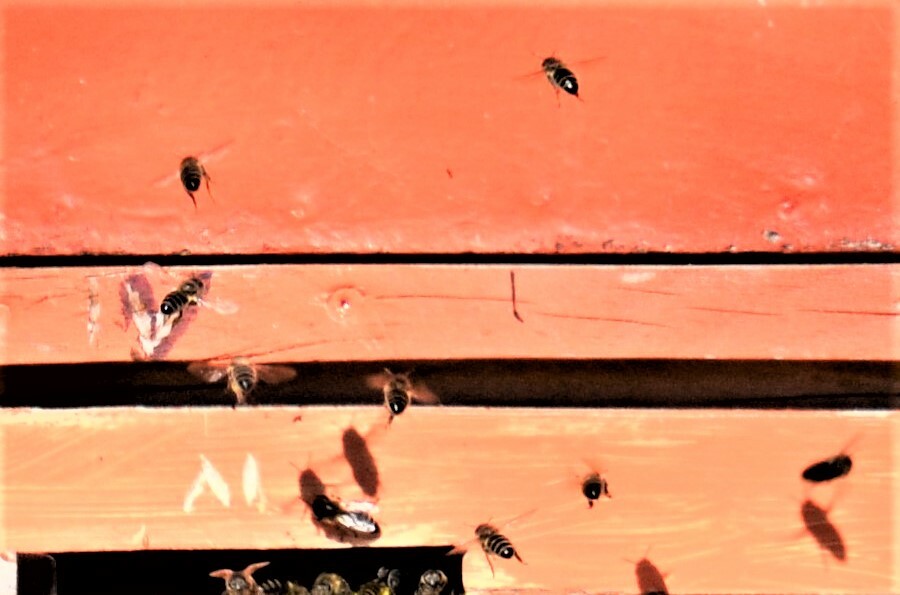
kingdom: Animalia
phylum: Arthropoda
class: Insecta
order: Hymenoptera
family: Apidae
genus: Apis
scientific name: Apis mellifera
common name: Honey bee
